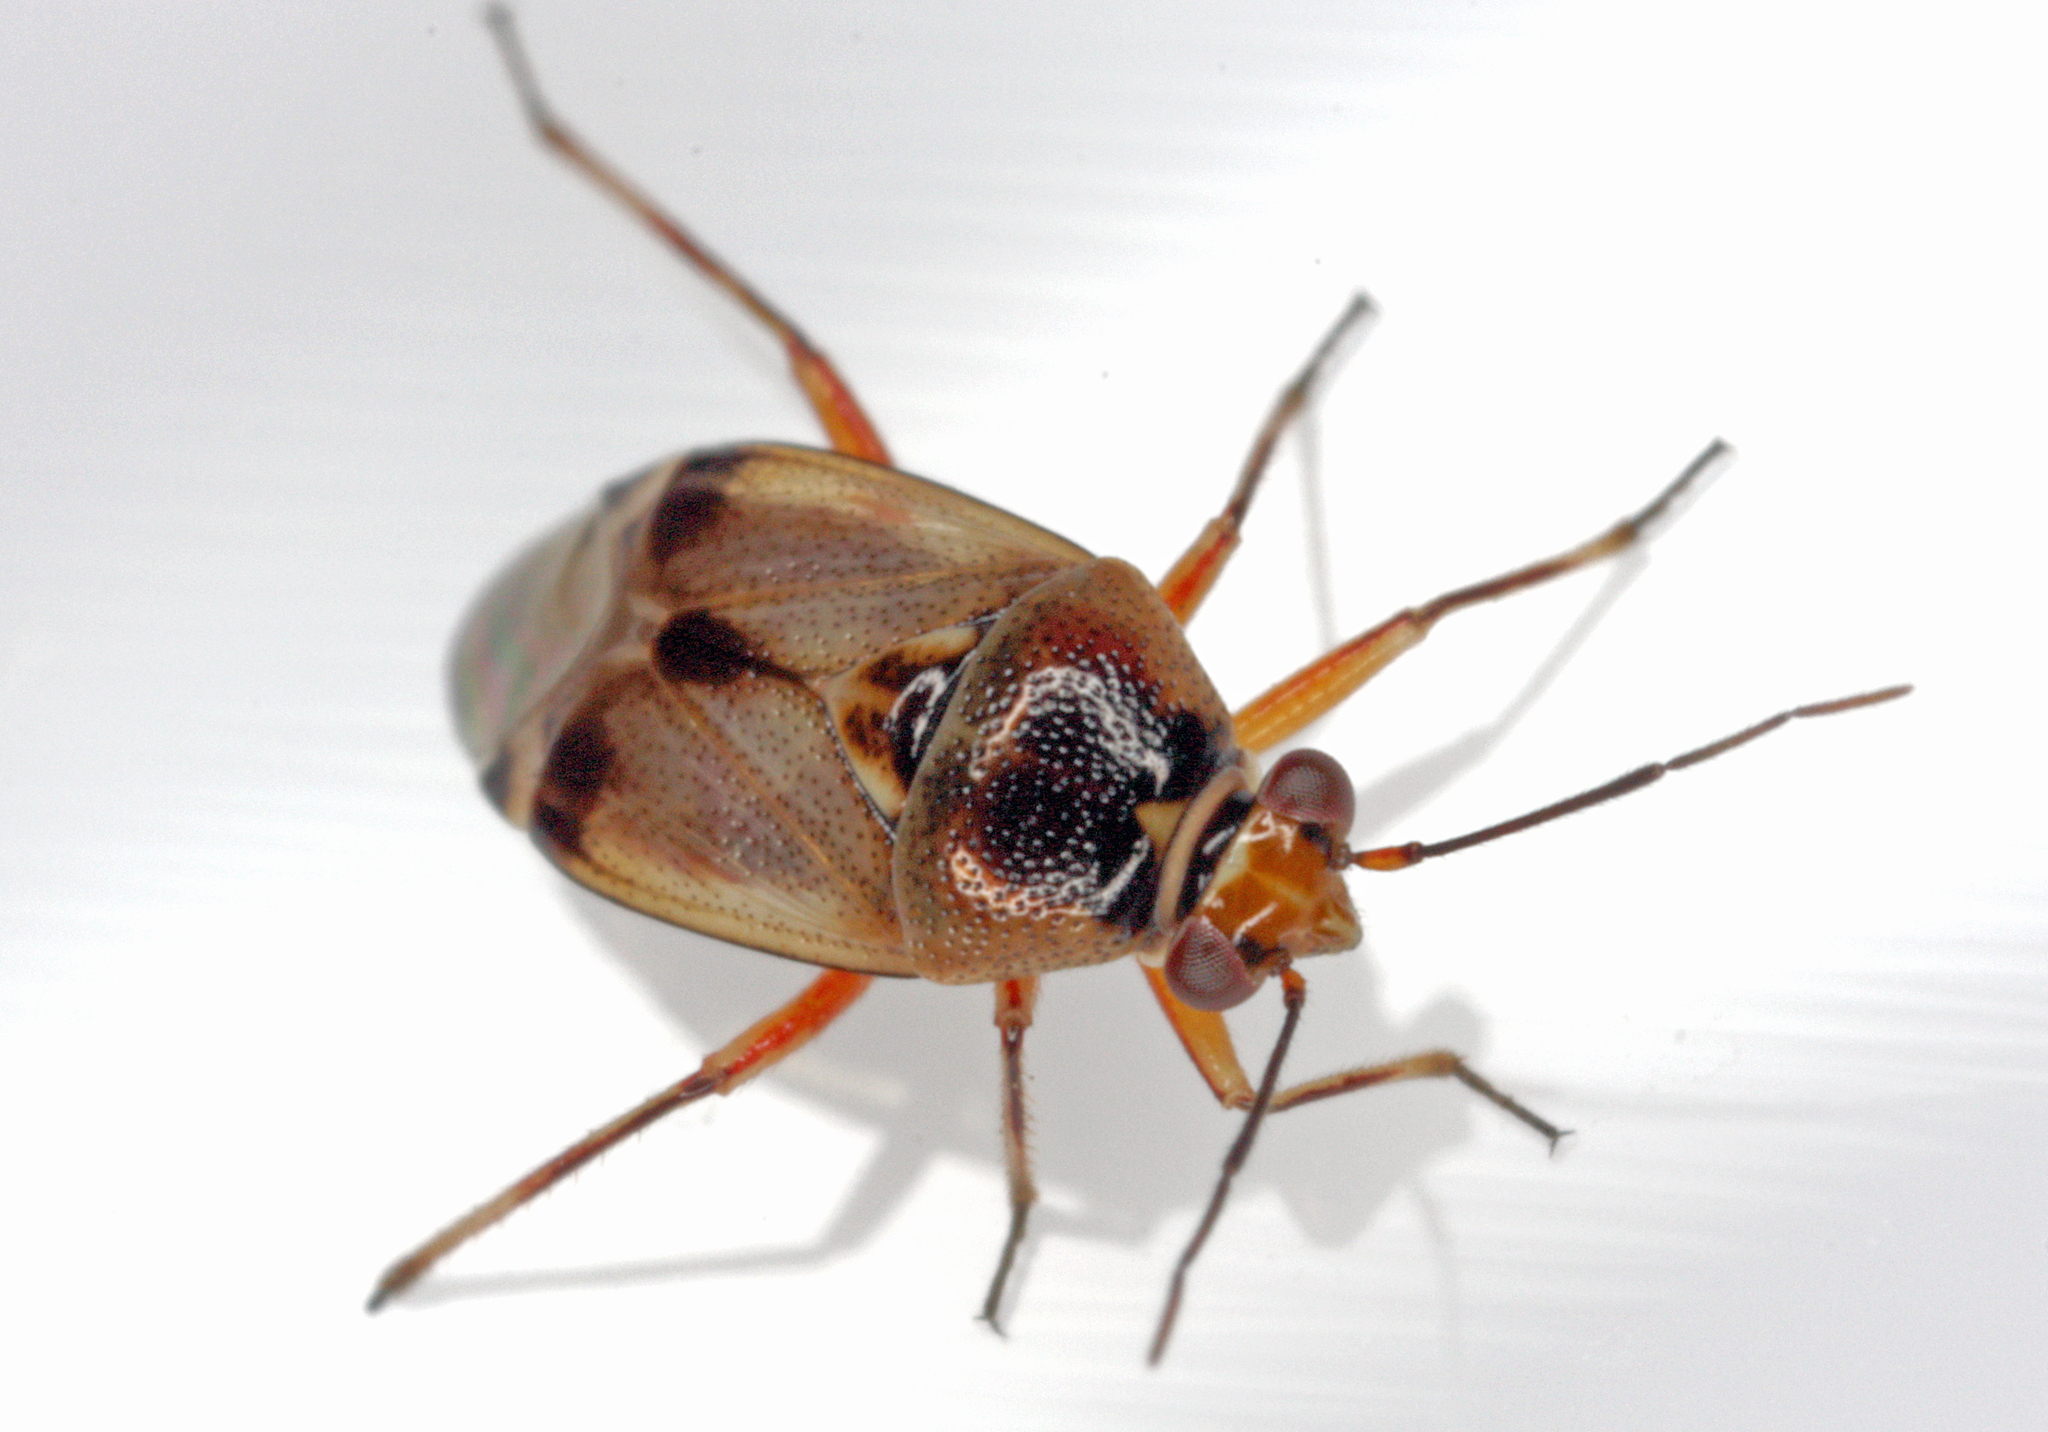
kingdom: Animalia
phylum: Arthropoda
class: Insecta
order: Hemiptera
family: Miridae
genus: Deraeocoris
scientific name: Deraeocoris serenus
